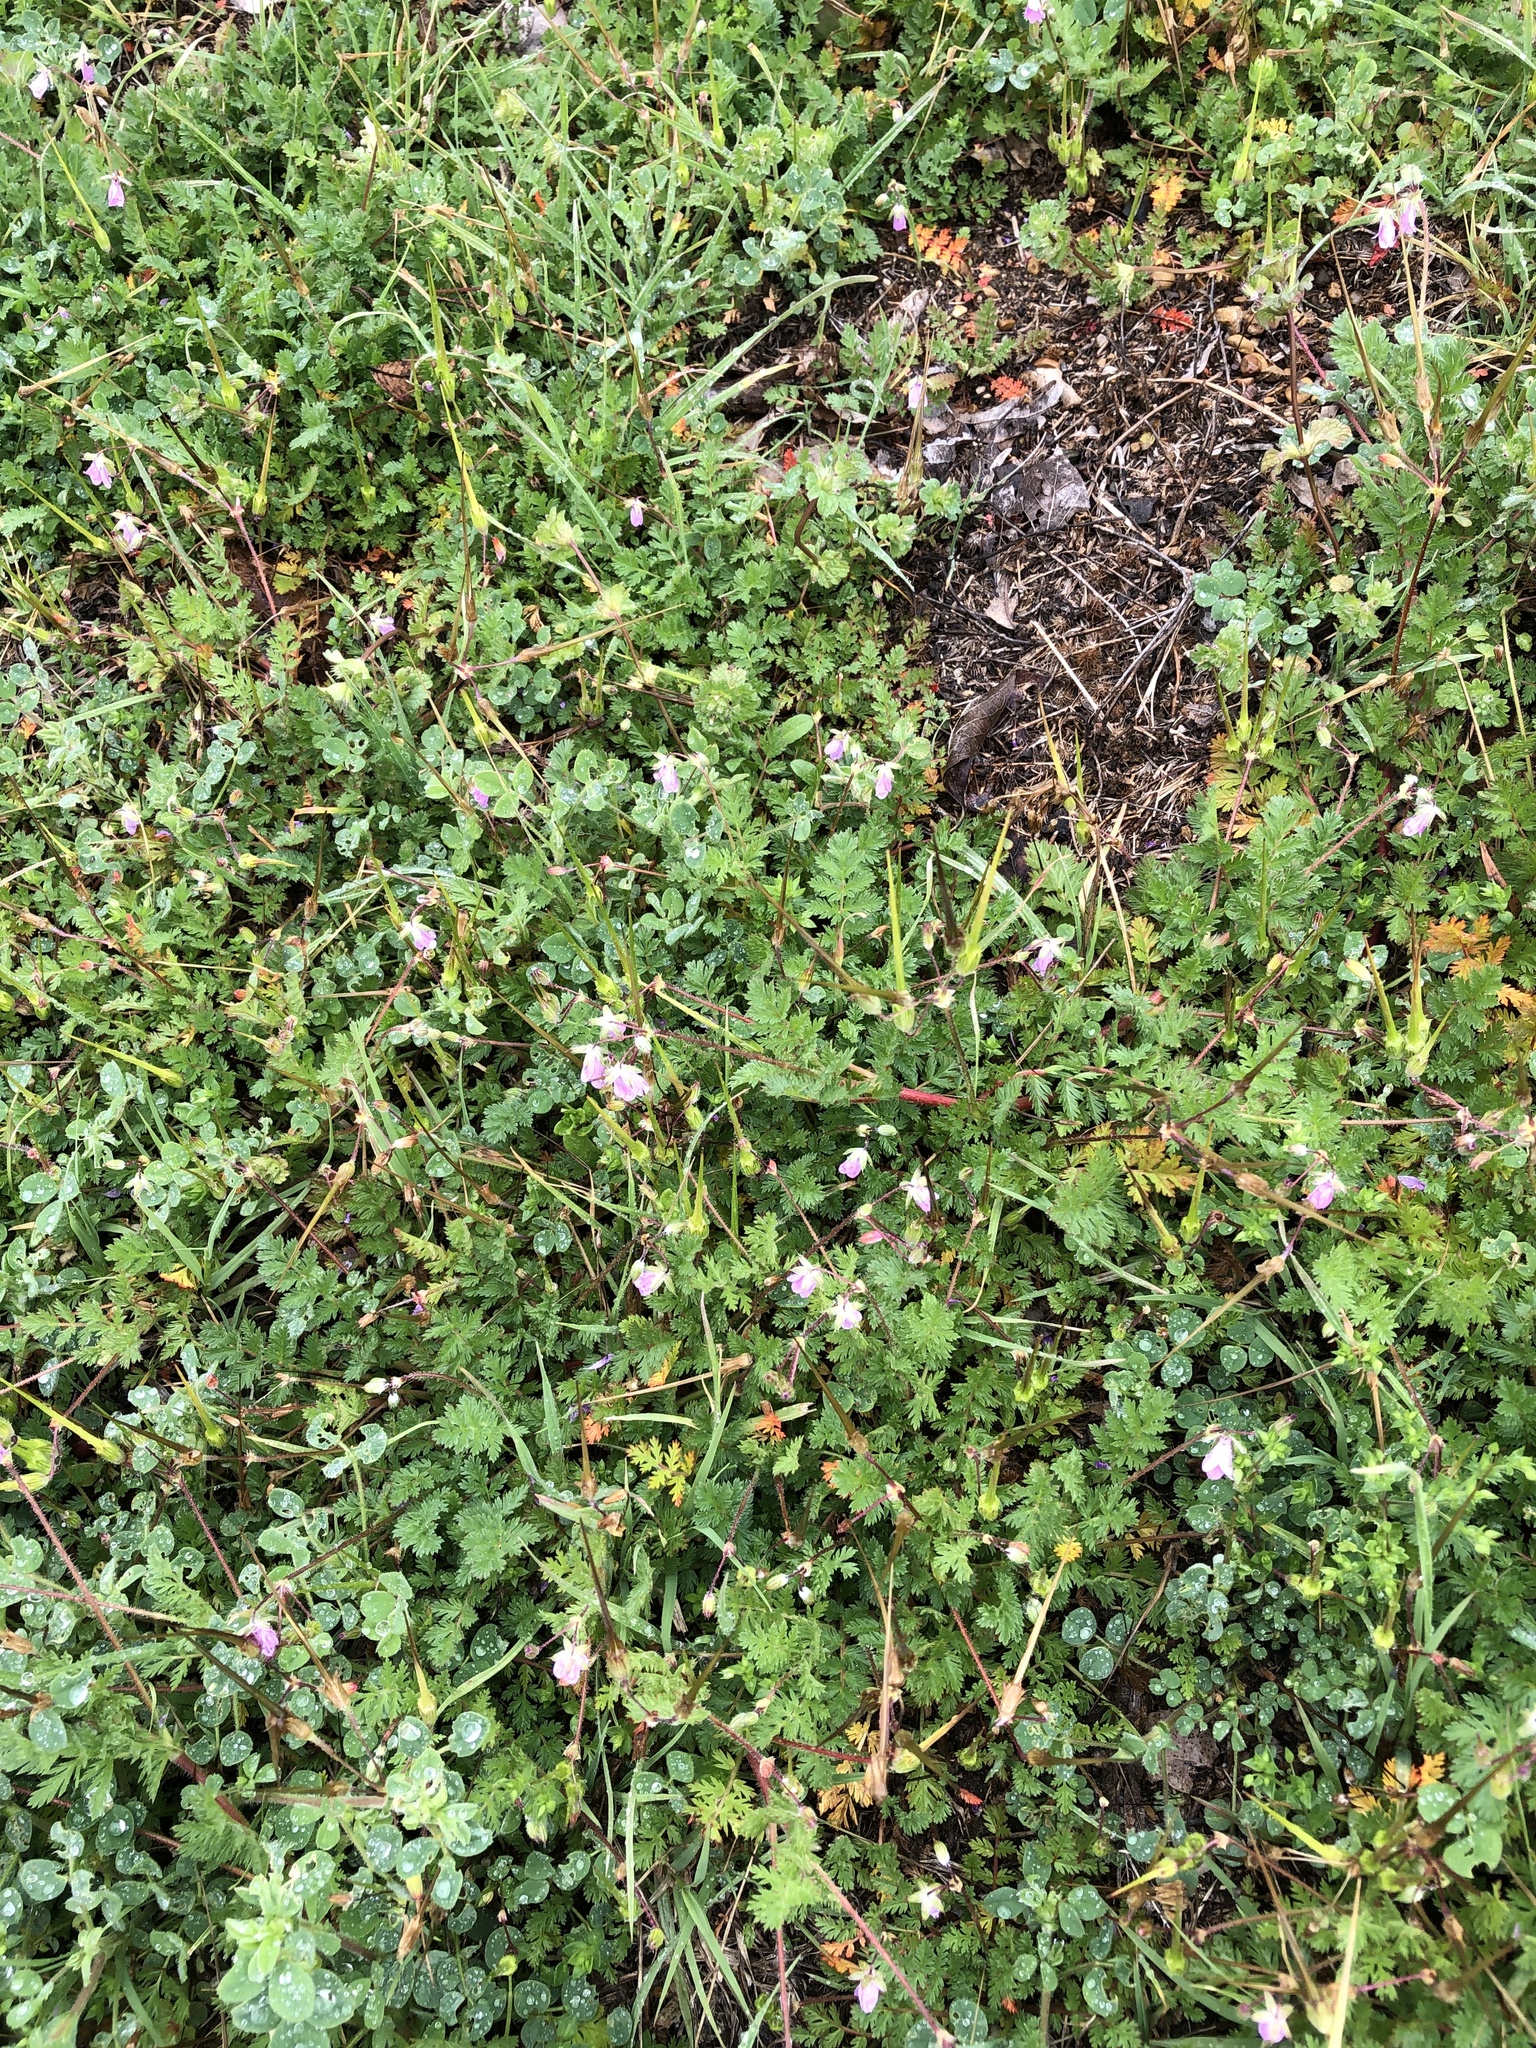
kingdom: Plantae
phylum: Tracheophyta
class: Magnoliopsida
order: Geraniales
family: Geraniaceae
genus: Erodium
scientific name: Erodium cicutarium
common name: Common stork's-bill
